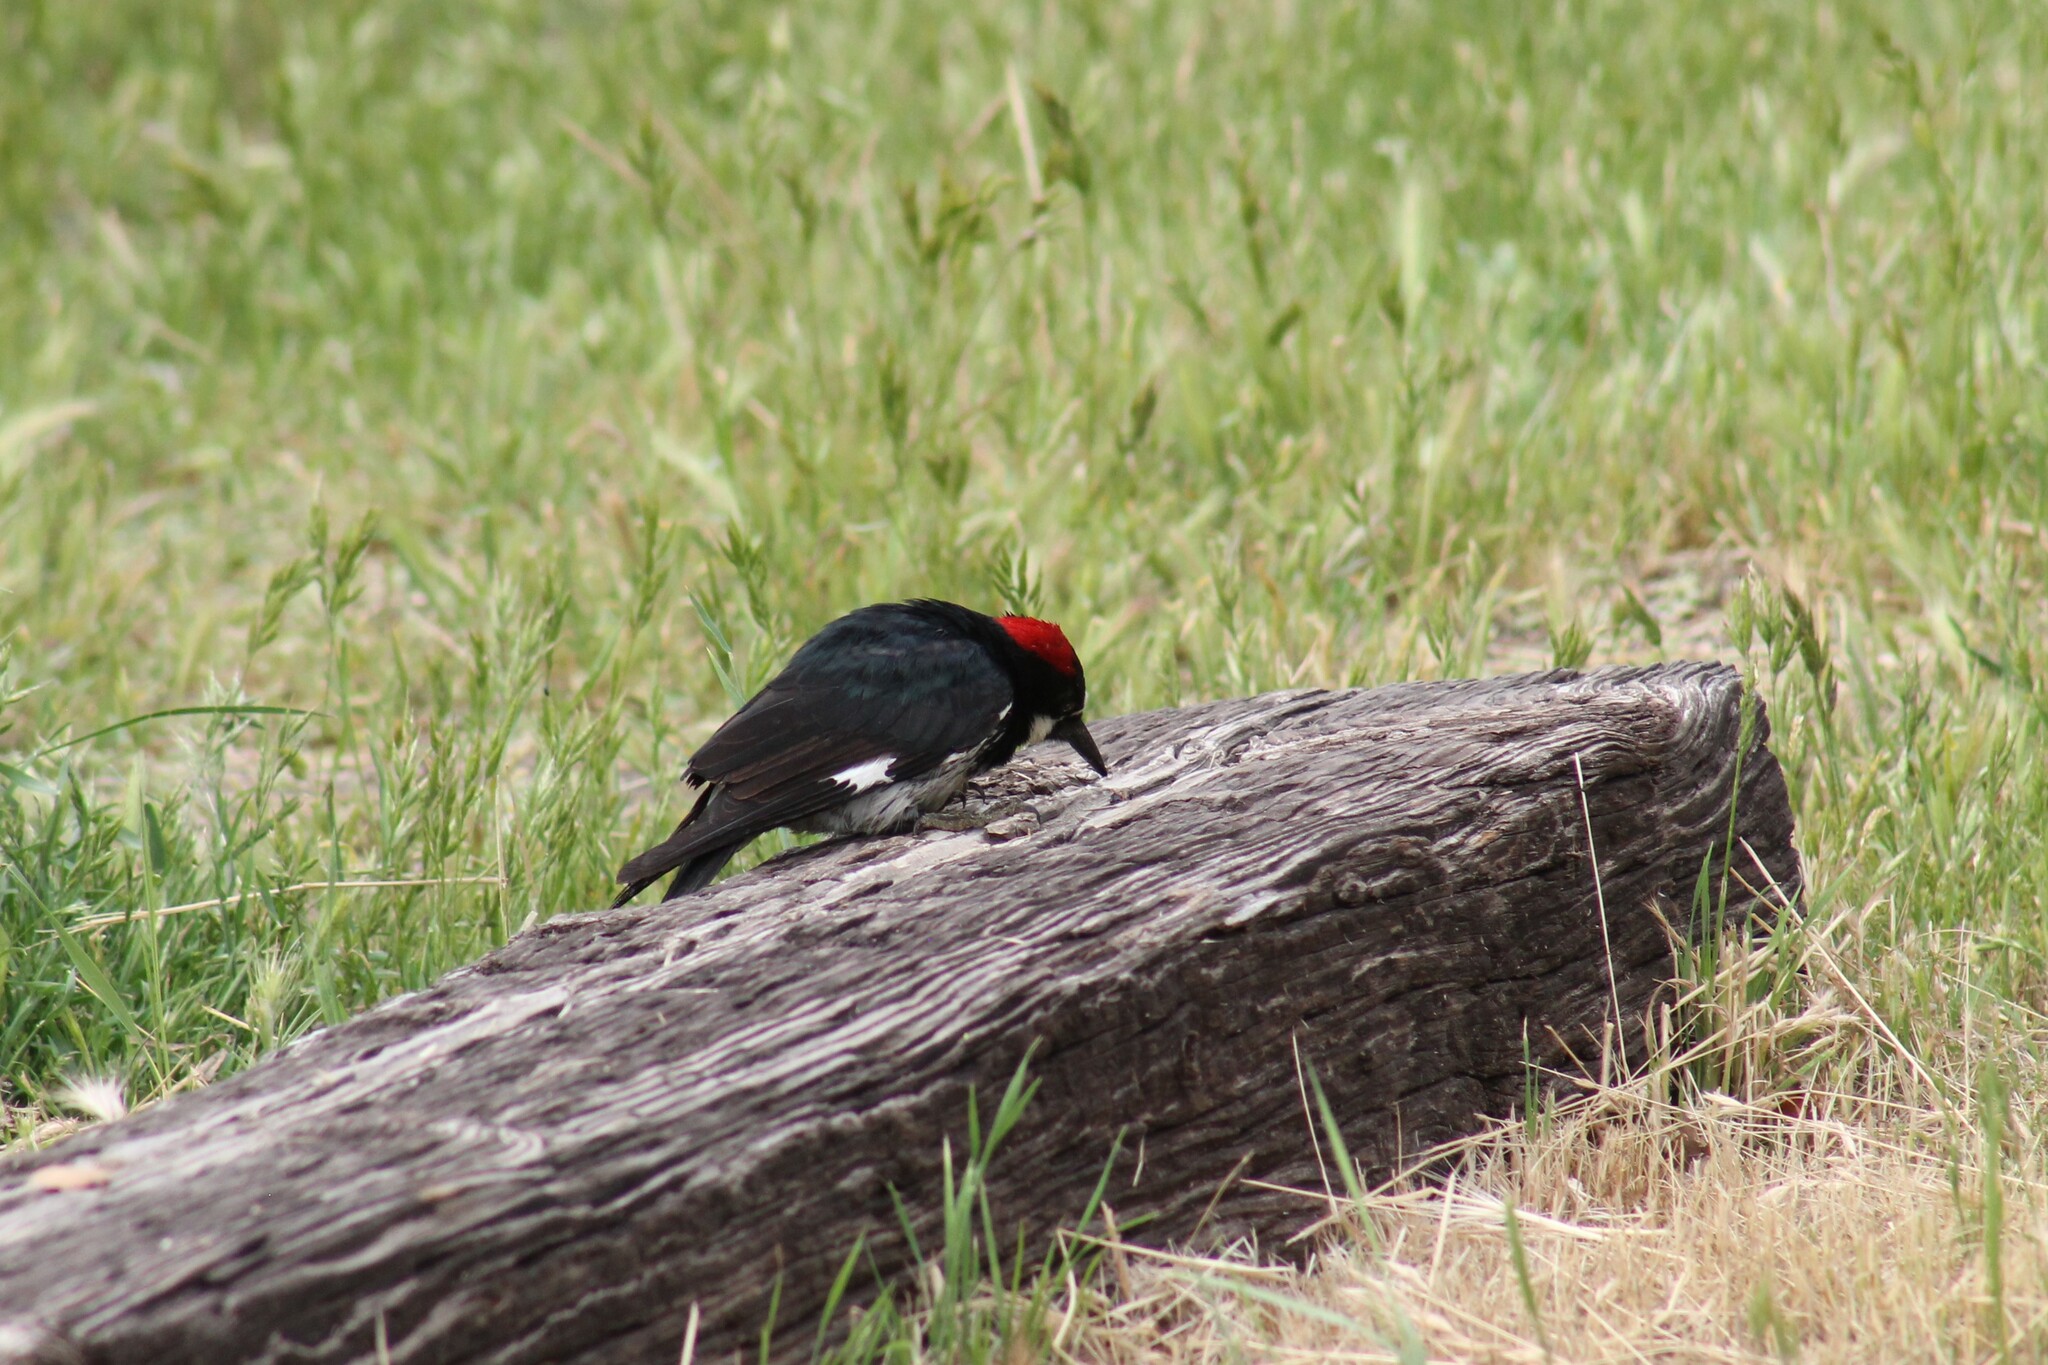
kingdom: Animalia
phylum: Chordata
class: Aves
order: Piciformes
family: Picidae
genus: Melanerpes
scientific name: Melanerpes formicivorus
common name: Acorn woodpecker
